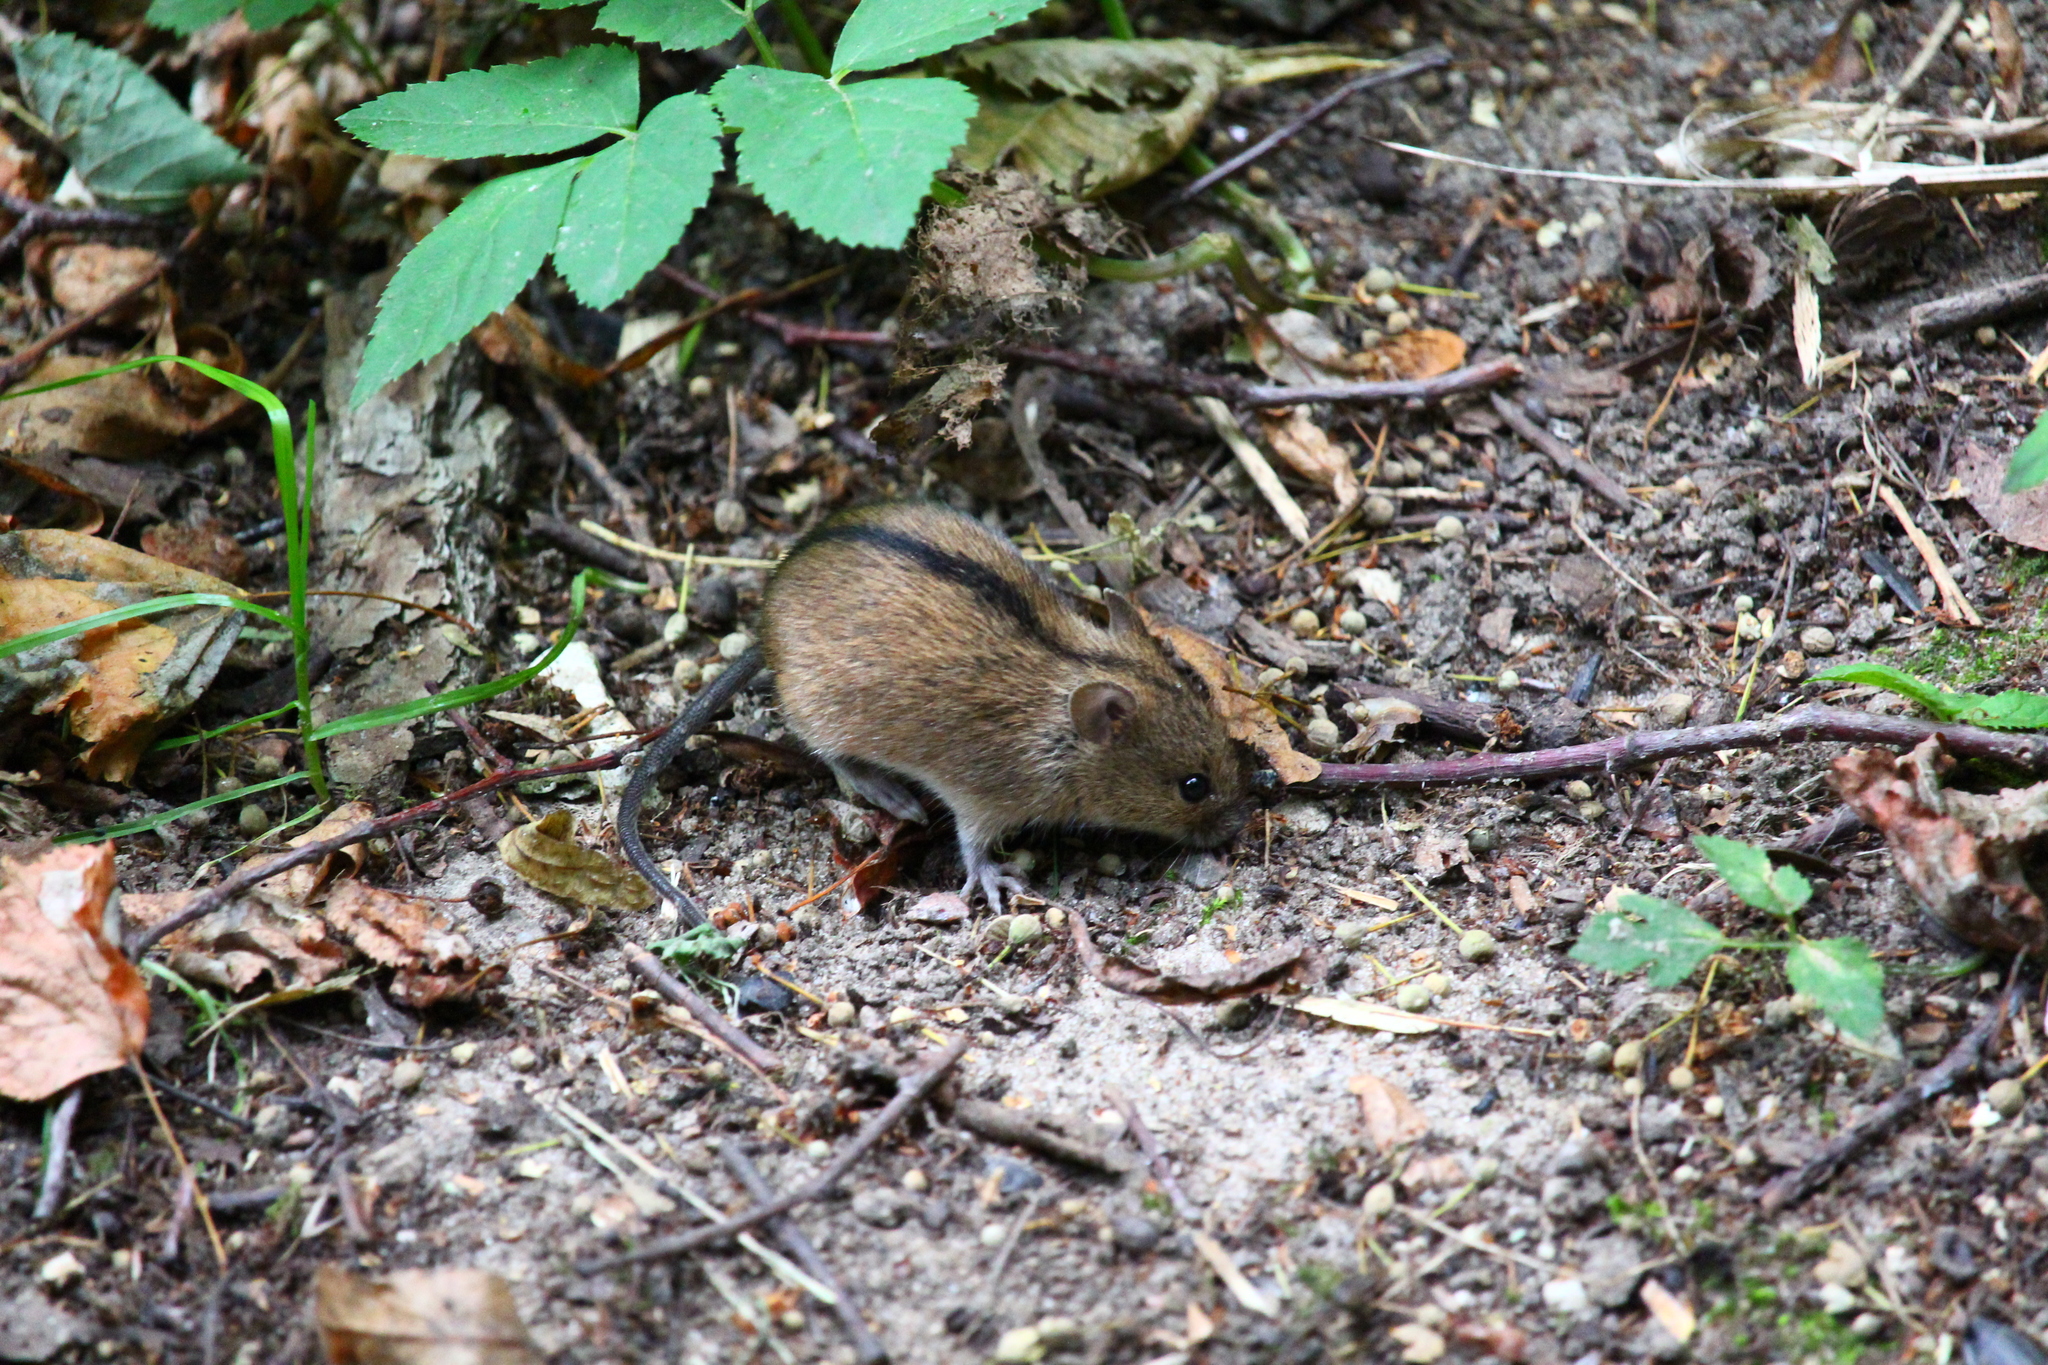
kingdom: Animalia
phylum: Chordata
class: Mammalia
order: Rodentia
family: Muridae
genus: Apodemus
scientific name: Apodemus agrarius
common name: Striped field mouse
